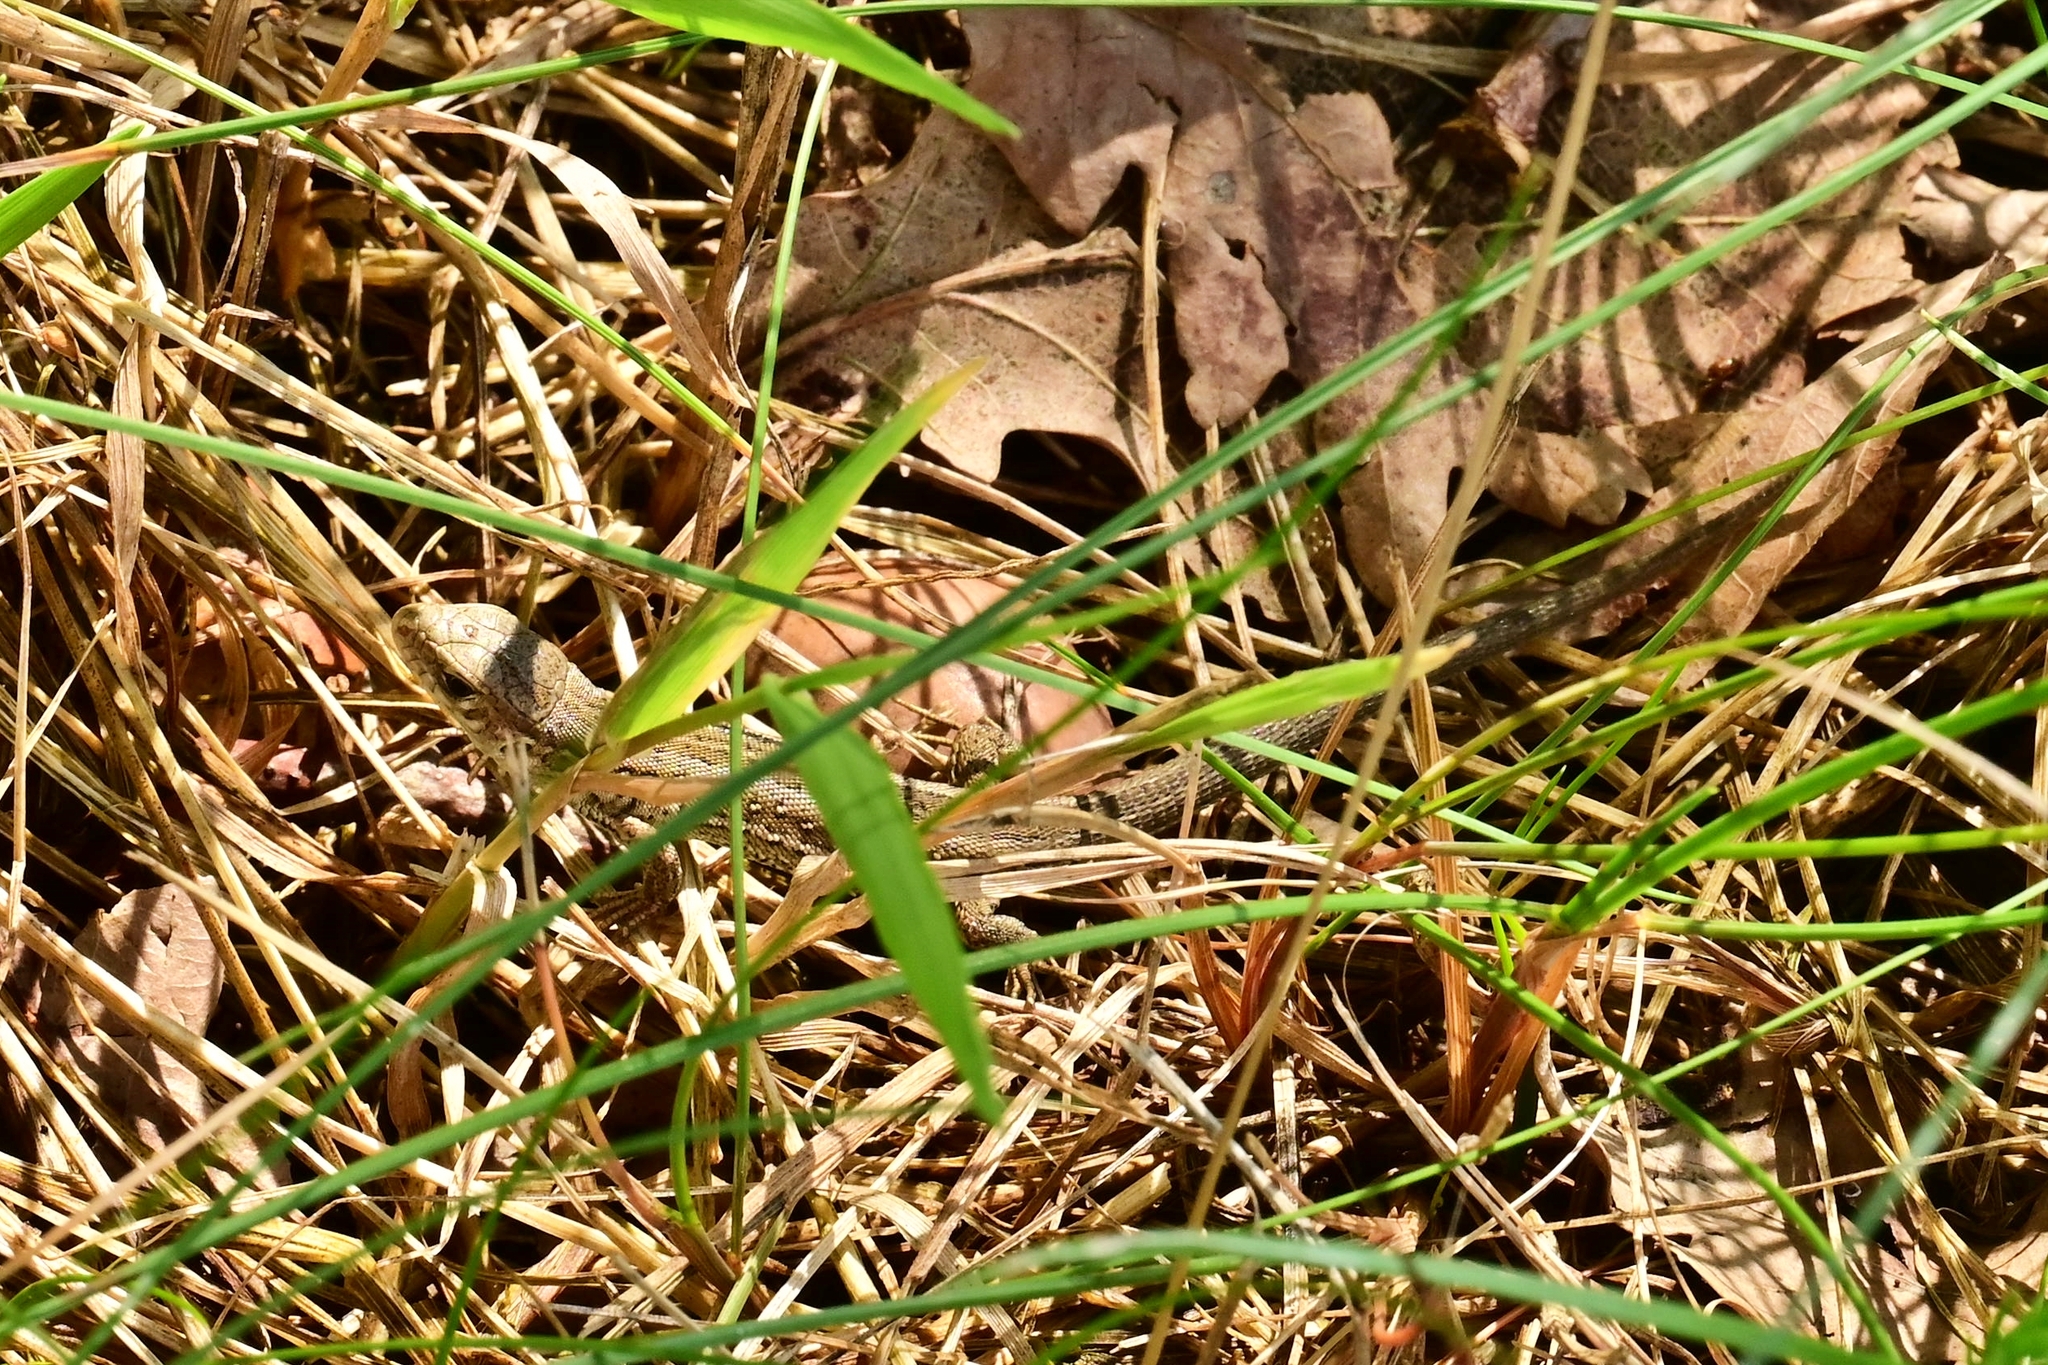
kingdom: Animalia
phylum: Chordata
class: Squamata
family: Lacertidae
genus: Lacerta
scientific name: Lacerta agilis
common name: Sand lizard
